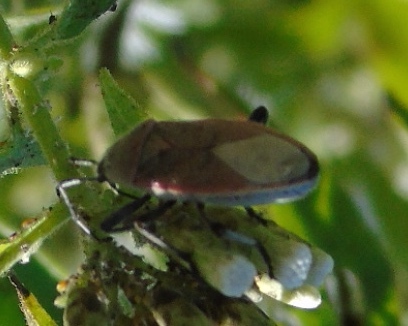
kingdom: Animalia
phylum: Arthropoda
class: Insecta
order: Hemiptera
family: Largidae
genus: Largus
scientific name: Largus
